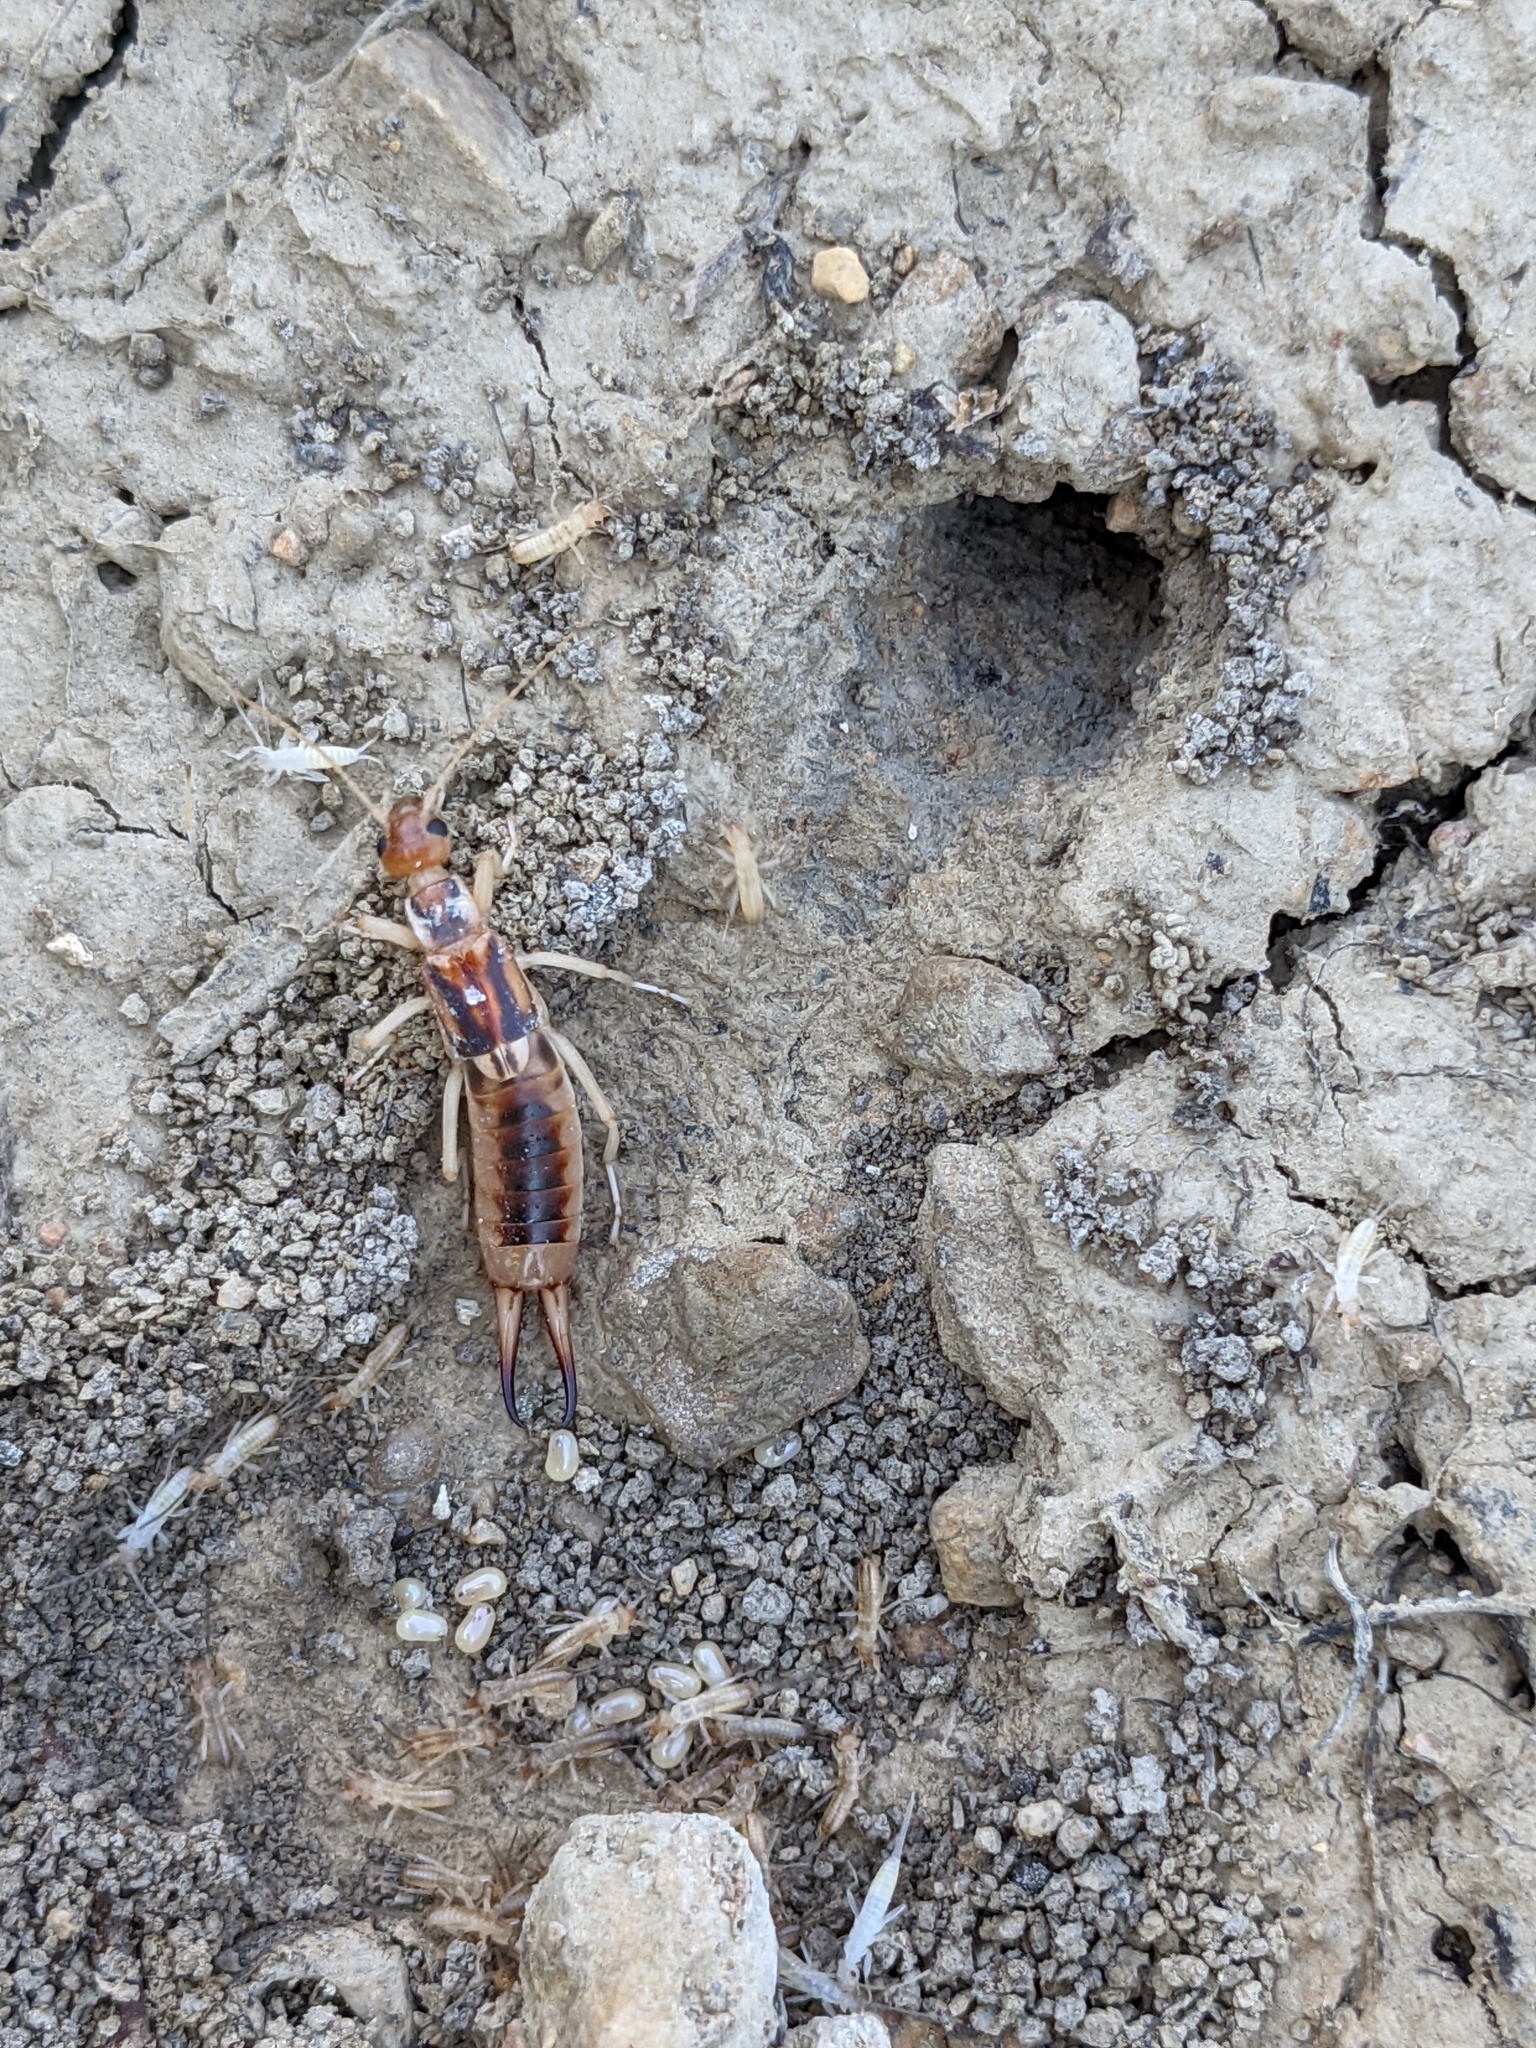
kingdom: Animalia
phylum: Arthropoda
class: Insecta
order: Dermaptera
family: Labiduridae
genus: Labidura
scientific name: Labidura riparia
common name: Striped earwig
